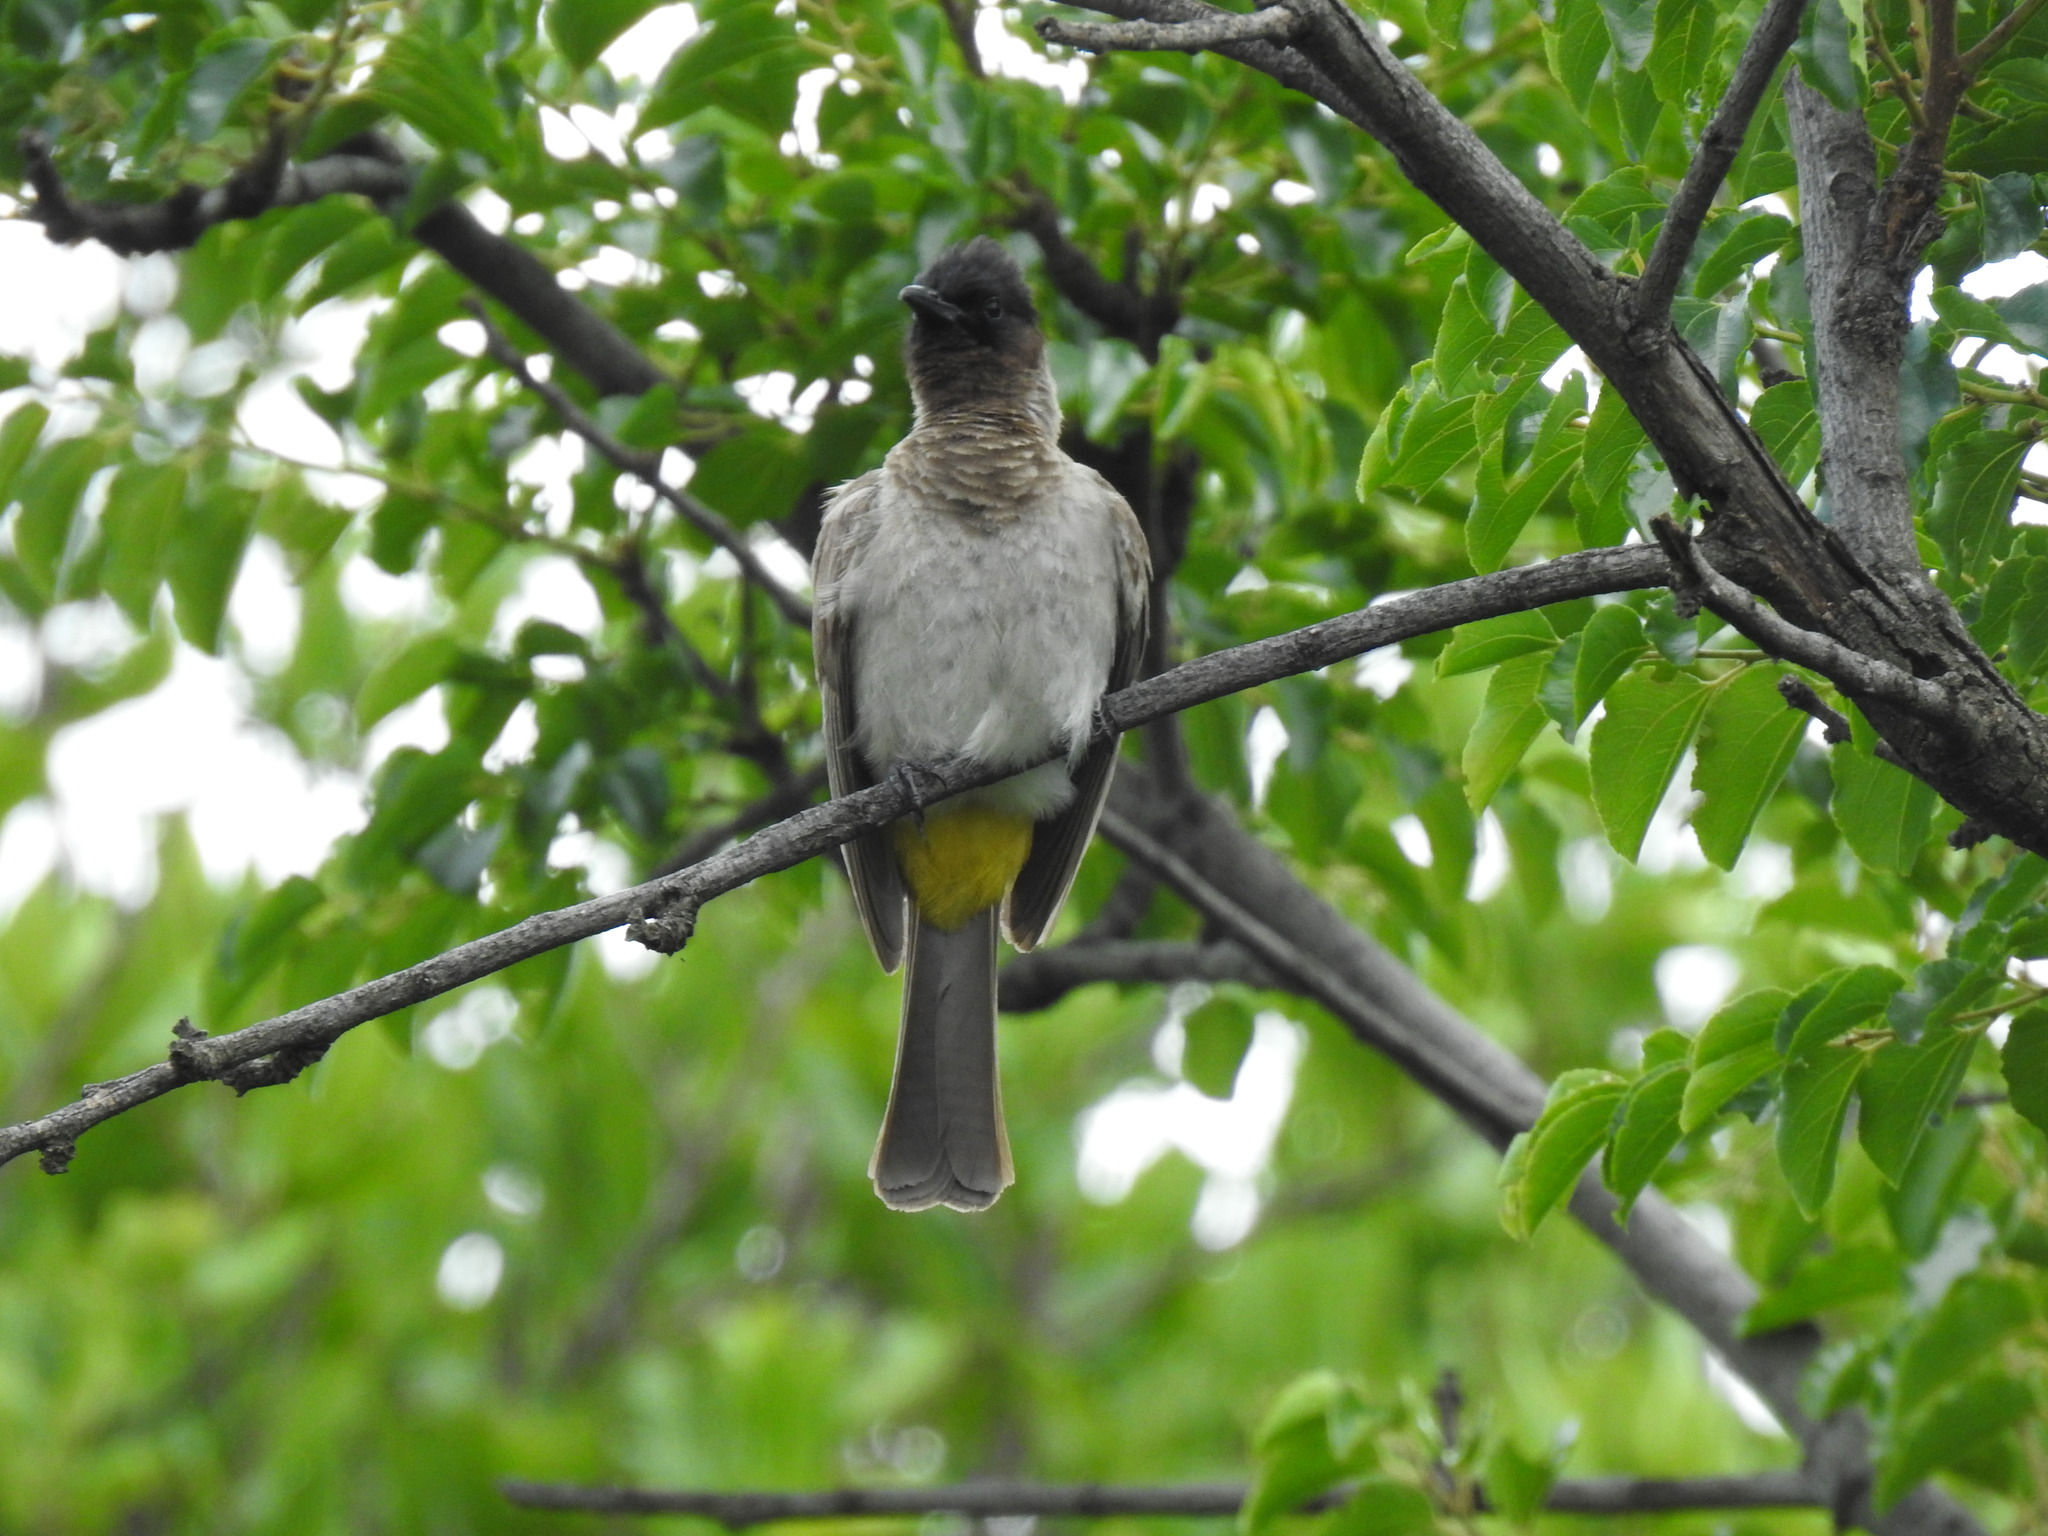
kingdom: Animalia
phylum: Chordata
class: Aves
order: Passeriformes
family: Pycnonotidae
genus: Pycnonotus
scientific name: Pycnonotus barbatus
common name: Common bulbul
